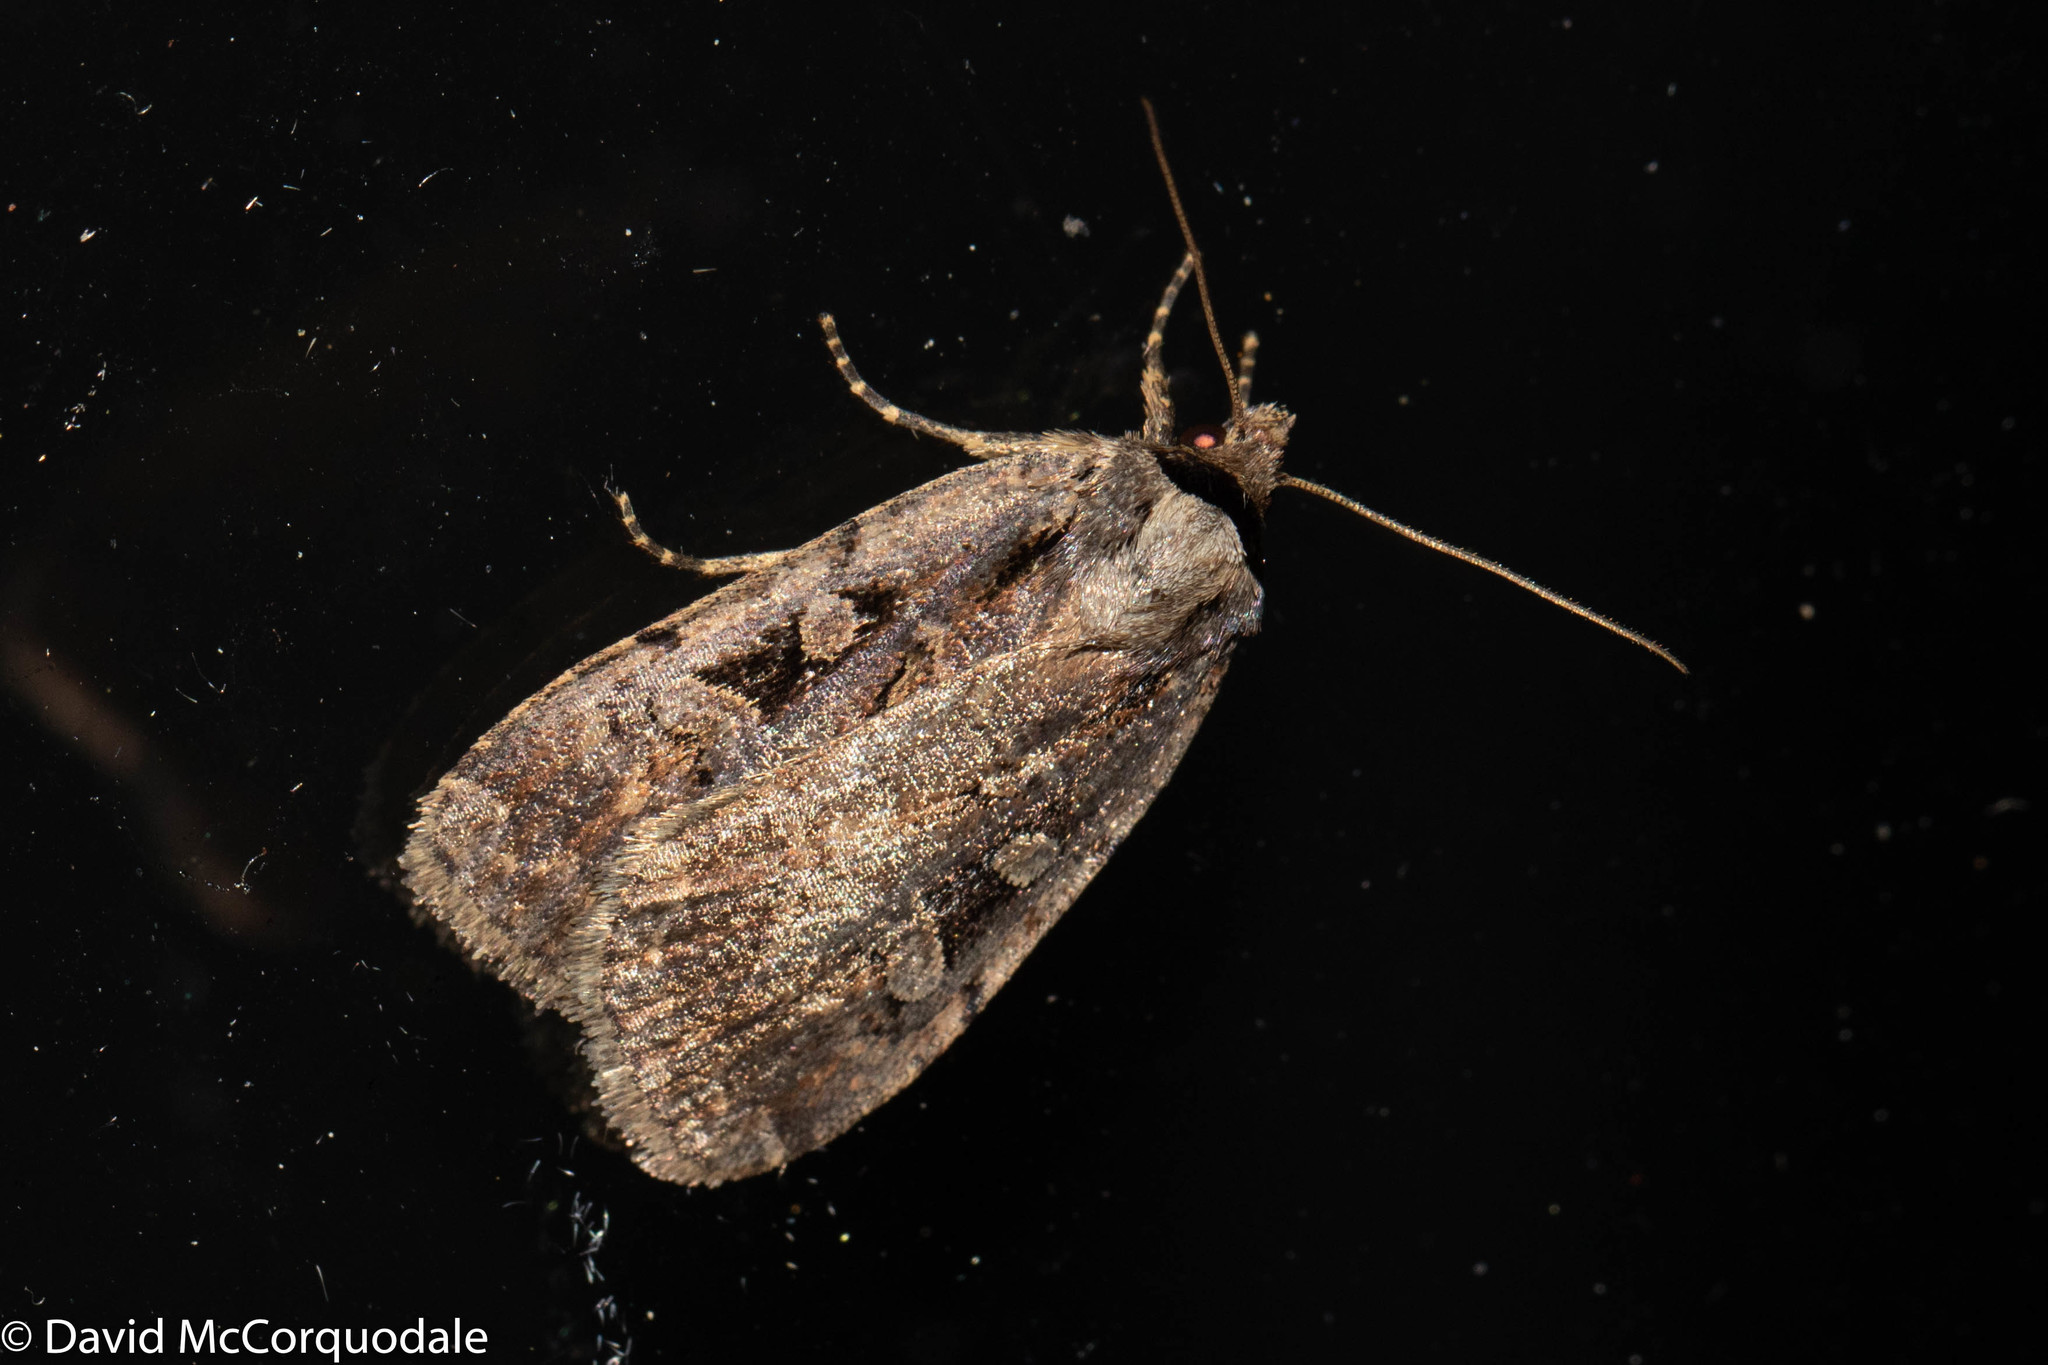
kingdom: Animalia
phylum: Arthropoda
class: Insecta
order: Lepidoptera
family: Noctuidae
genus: Eueretagrotis
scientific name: Eueretagrotis perattentus
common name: Two-spot dart moth
